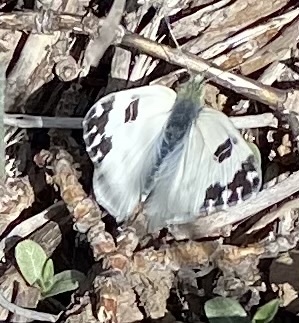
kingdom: Animalia
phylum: Arthropoda
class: Insecta
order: Lepidoptera
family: Pieridae
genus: Pontia
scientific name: Pontia daplidice
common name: Bath white
